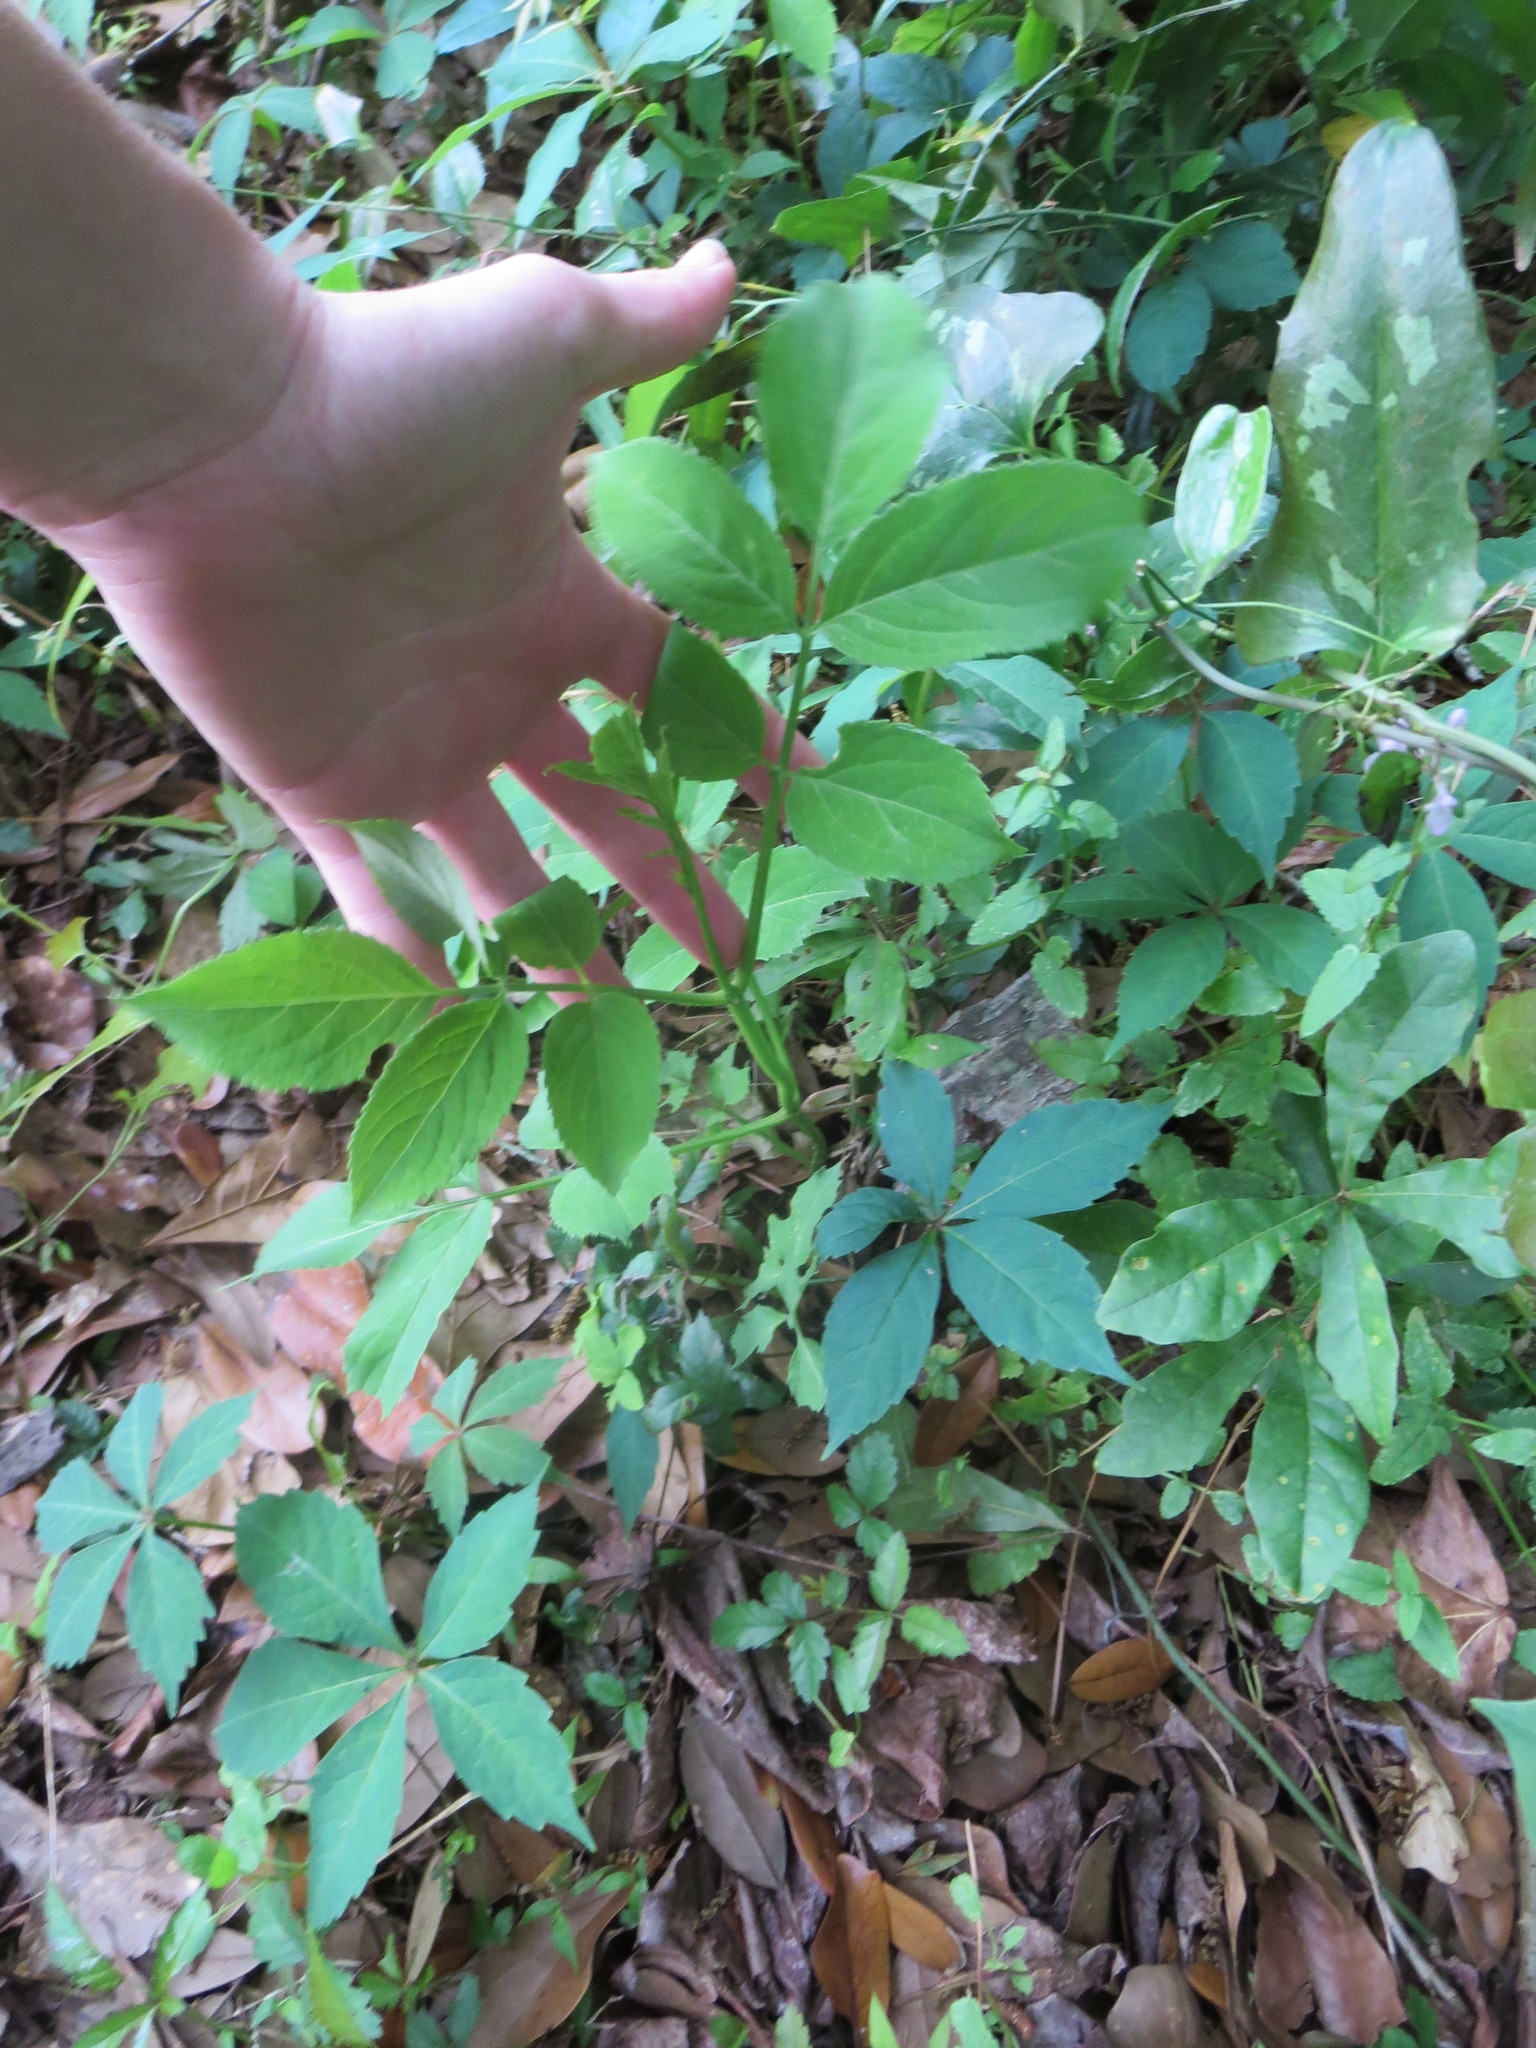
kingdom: Plantae
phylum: Tracheophyta
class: Magnoliopsida
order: Dipsacales
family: Viburnaceae
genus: Sambucus
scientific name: Sambucus canadensis
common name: American elder
